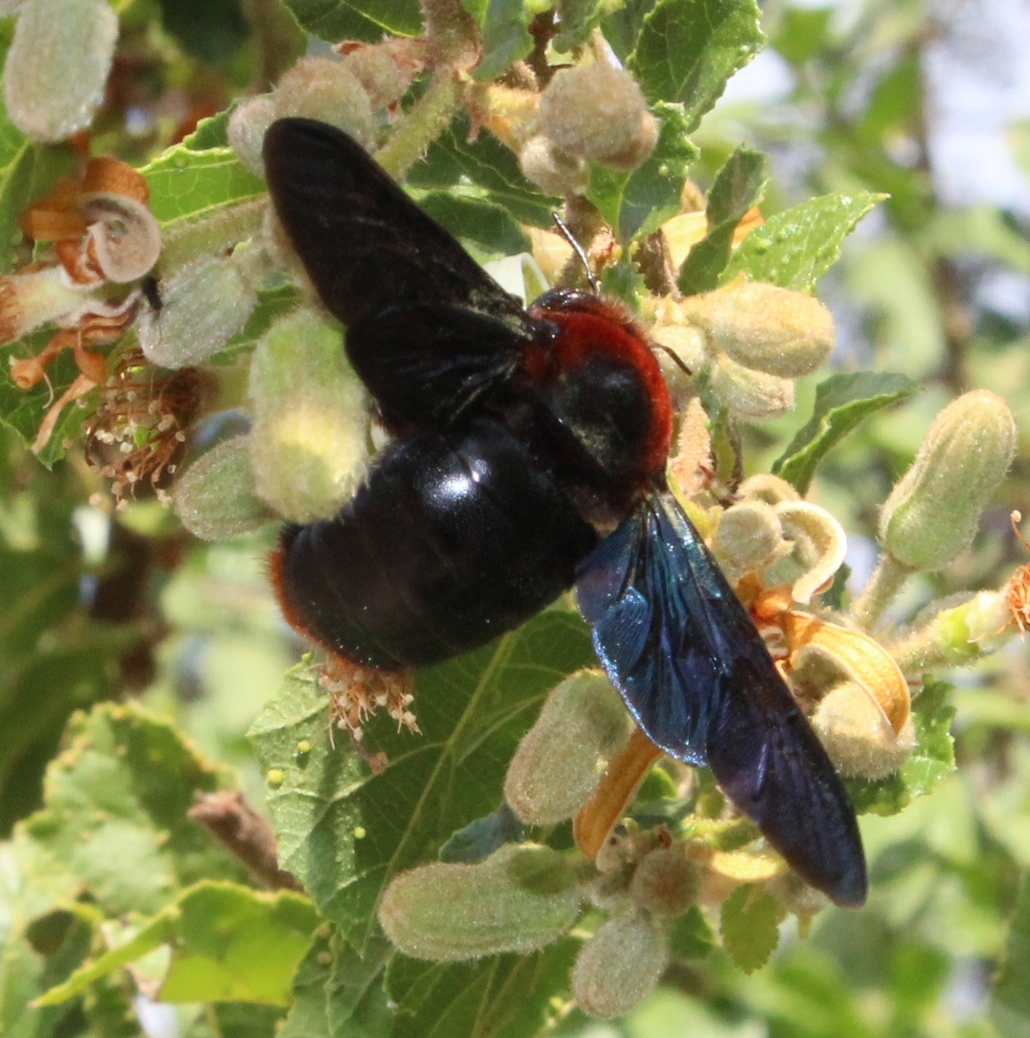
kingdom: Animalia
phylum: Arthropoda
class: Insecta
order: Hymenoptera
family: Apidae
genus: Xylocopa
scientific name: Xylocopa flavorufa
